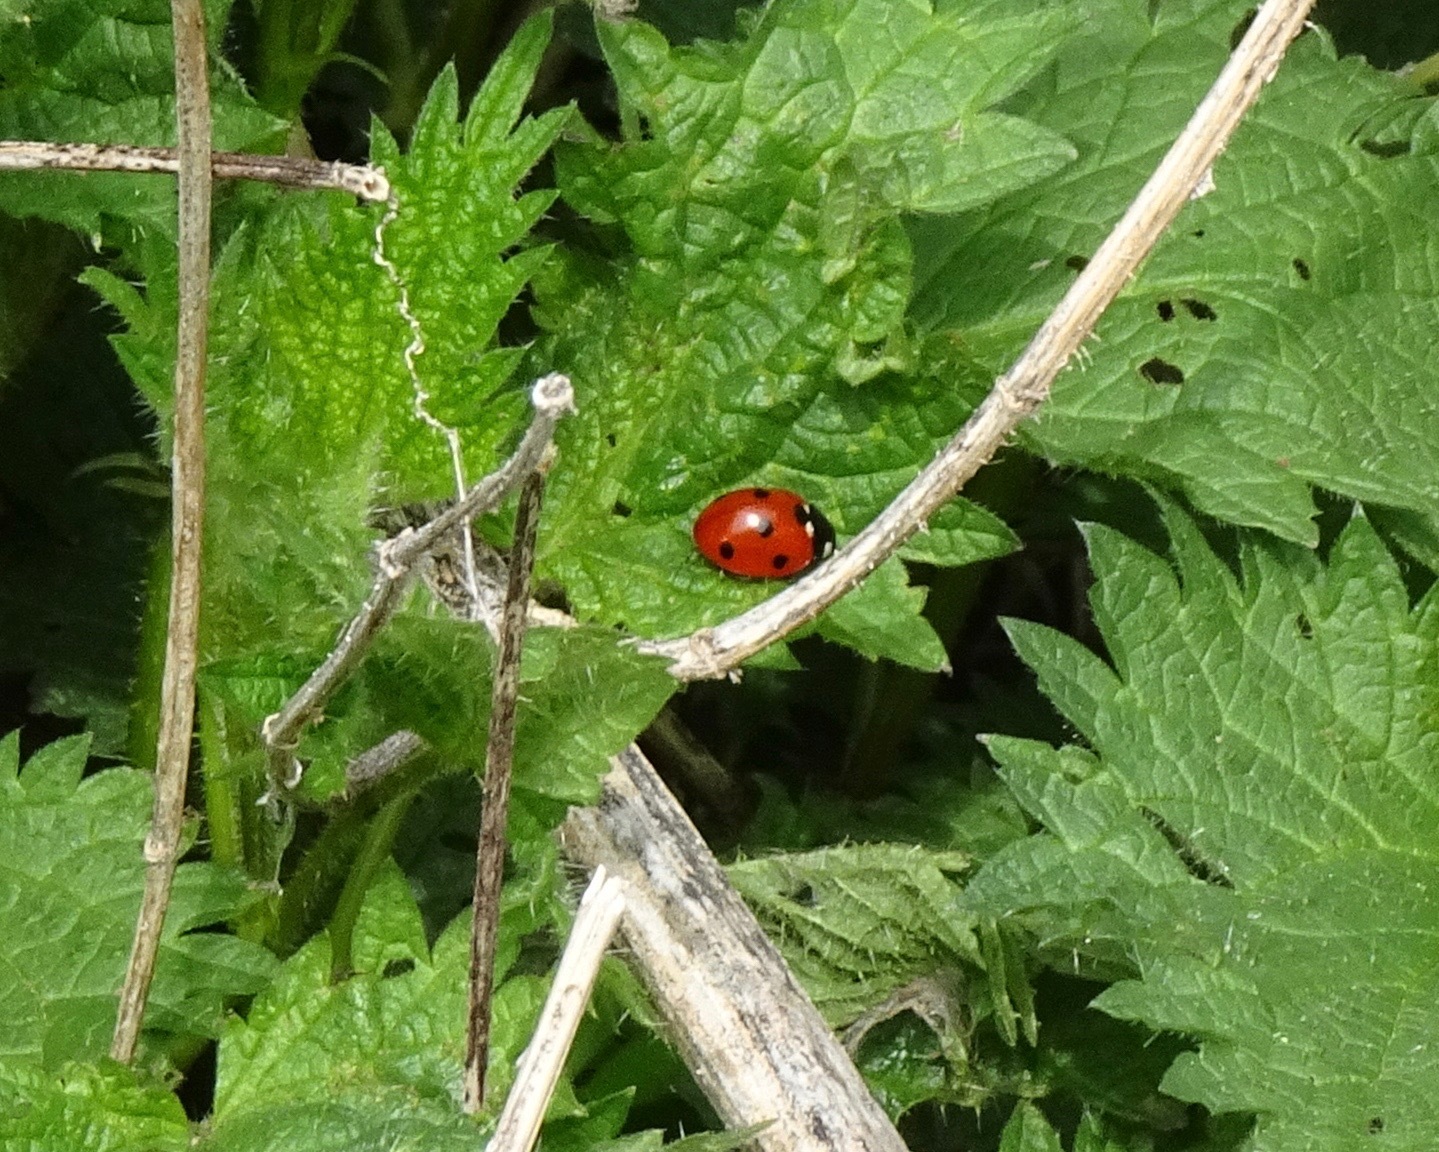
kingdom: Animalia
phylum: Arthropoda
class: Insecta
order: Coleoptera
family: Coccinellidae
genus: Coccinella
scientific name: Coccinella septempunctata
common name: Sevenspotted lady beetle
